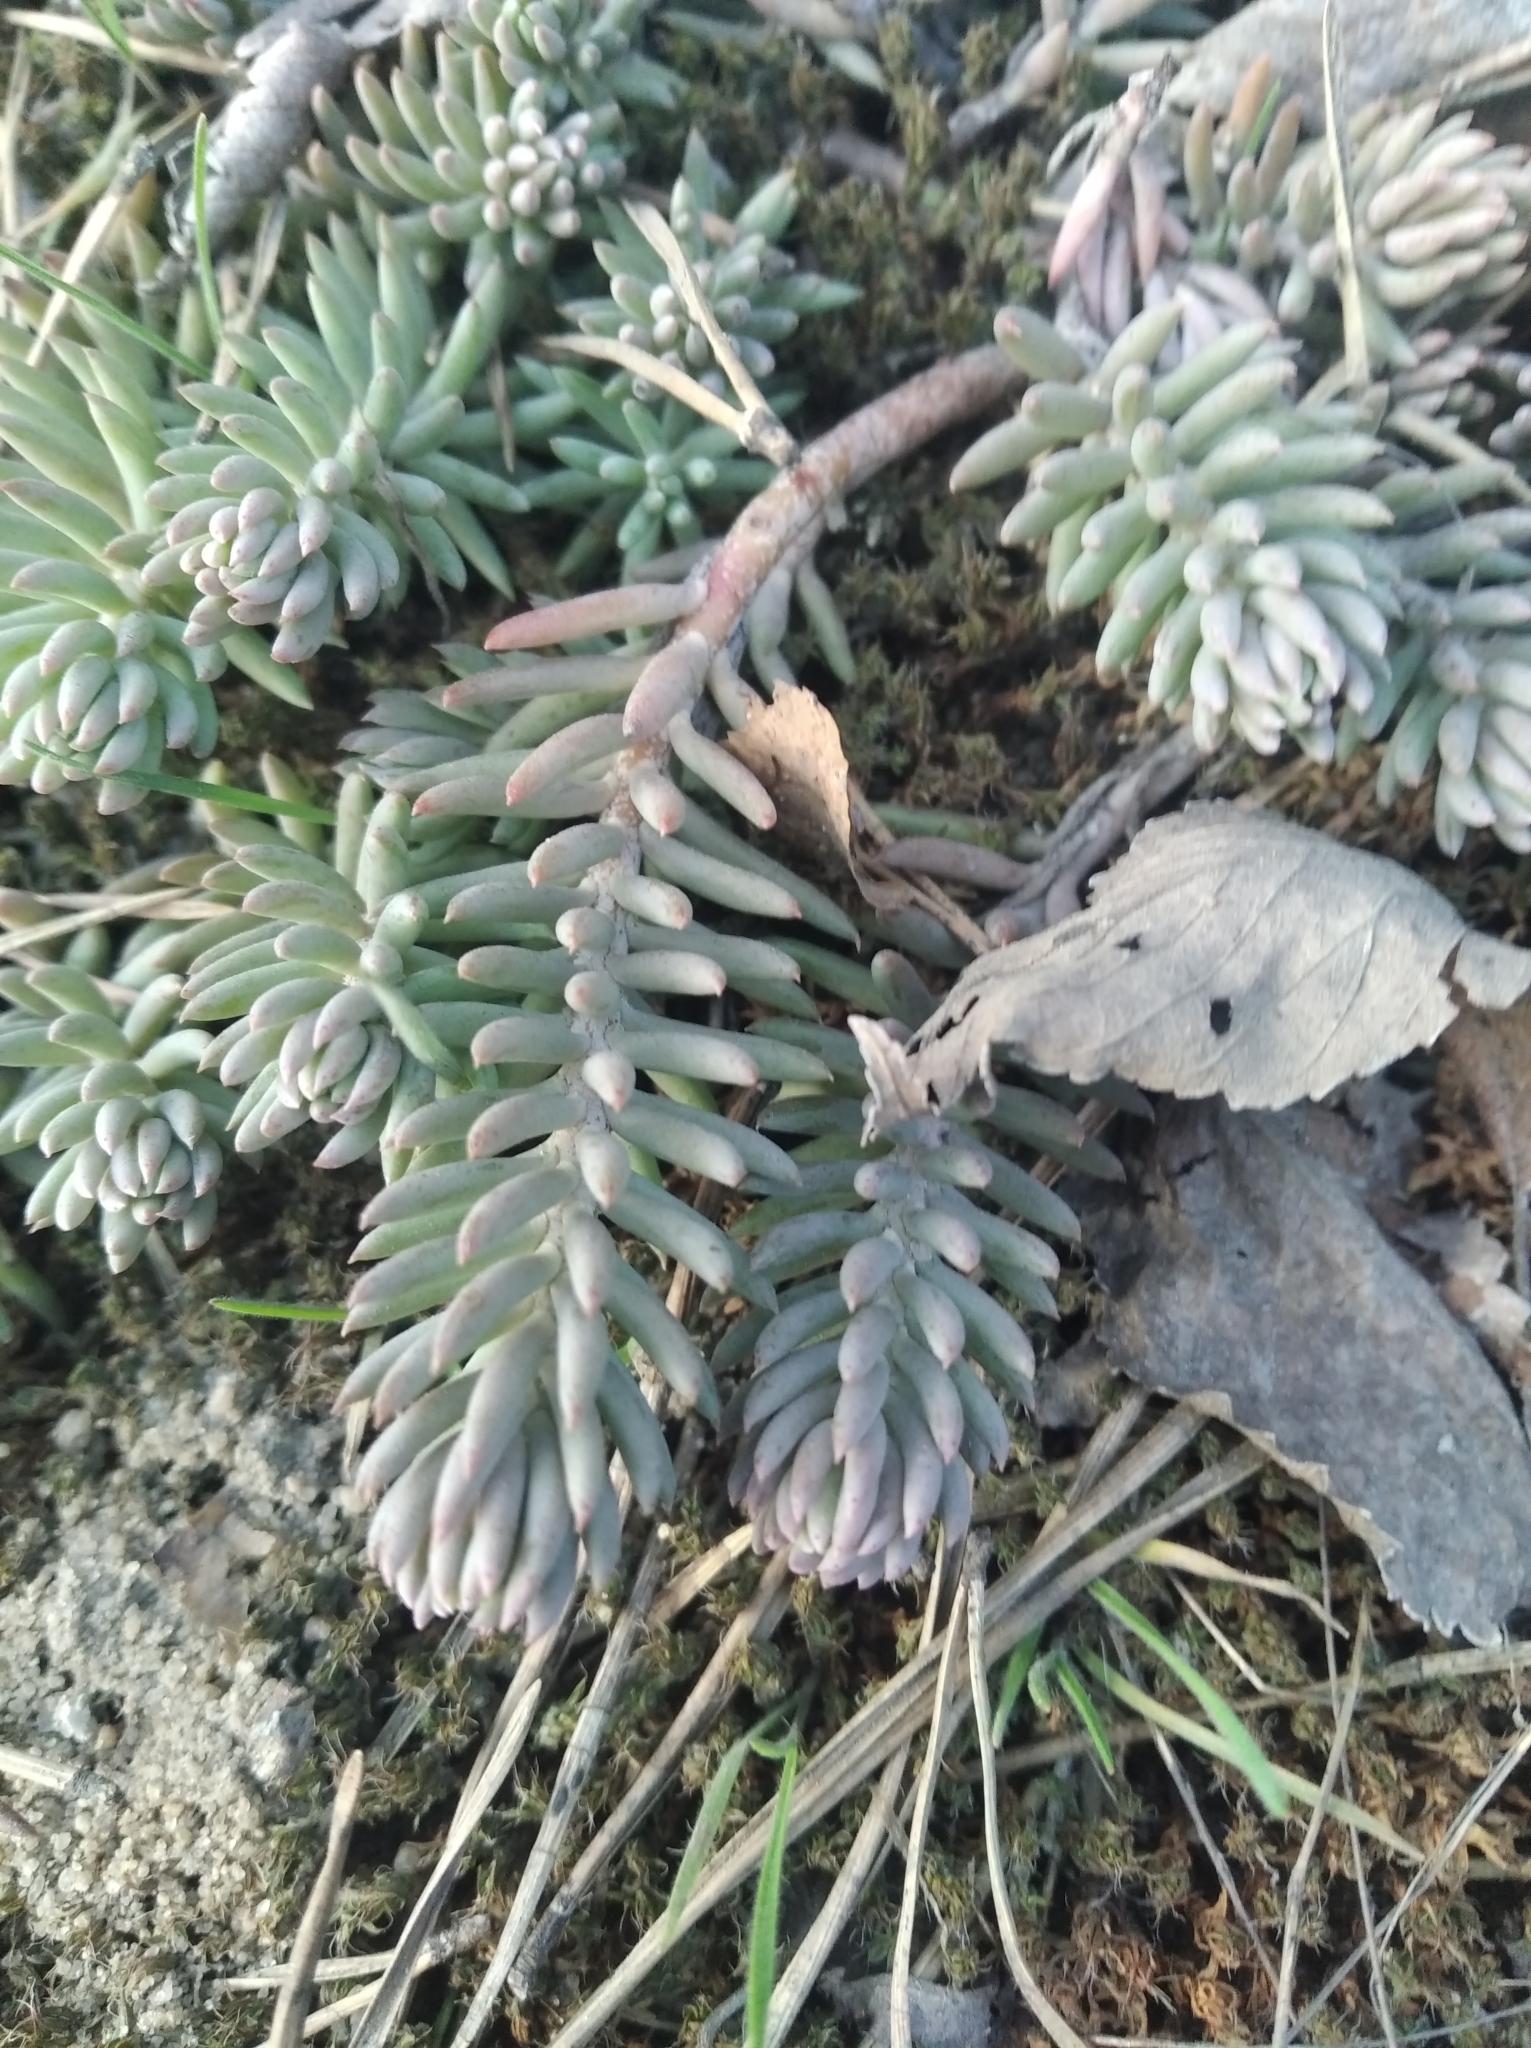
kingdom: Plantae
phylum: Tracheophyta
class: Magnoliopsida
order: Saxifragales
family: Crassulaceae
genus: Petrosedum
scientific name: Petrosedum rupestre
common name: Jenny's stonecrop
